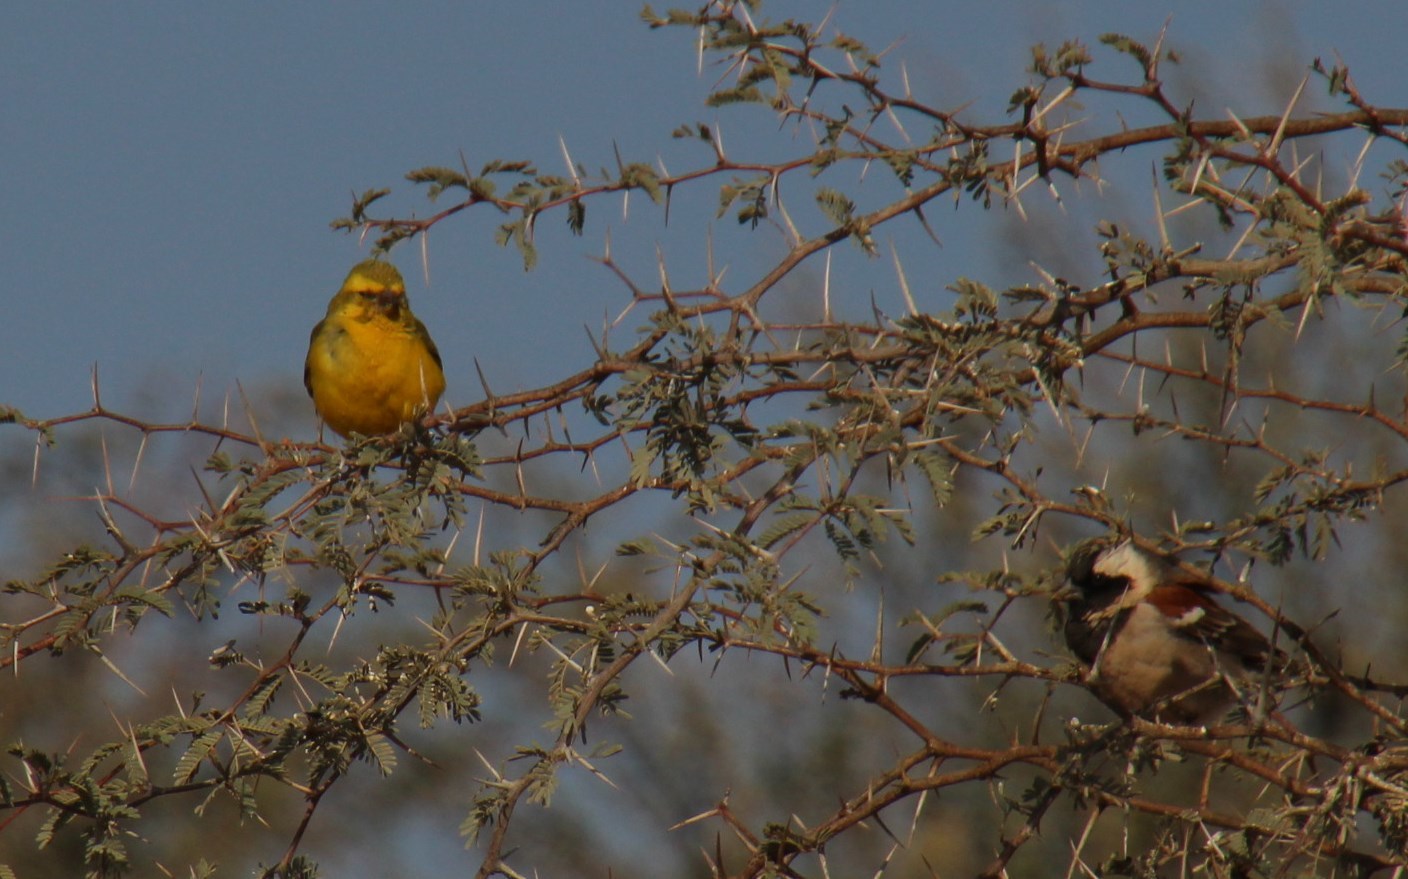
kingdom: Animalia
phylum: Chordata
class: Aves
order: Passeriformes
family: Fringillidae
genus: Crithagra
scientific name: Crithagra flaviventris
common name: Yellow canary
